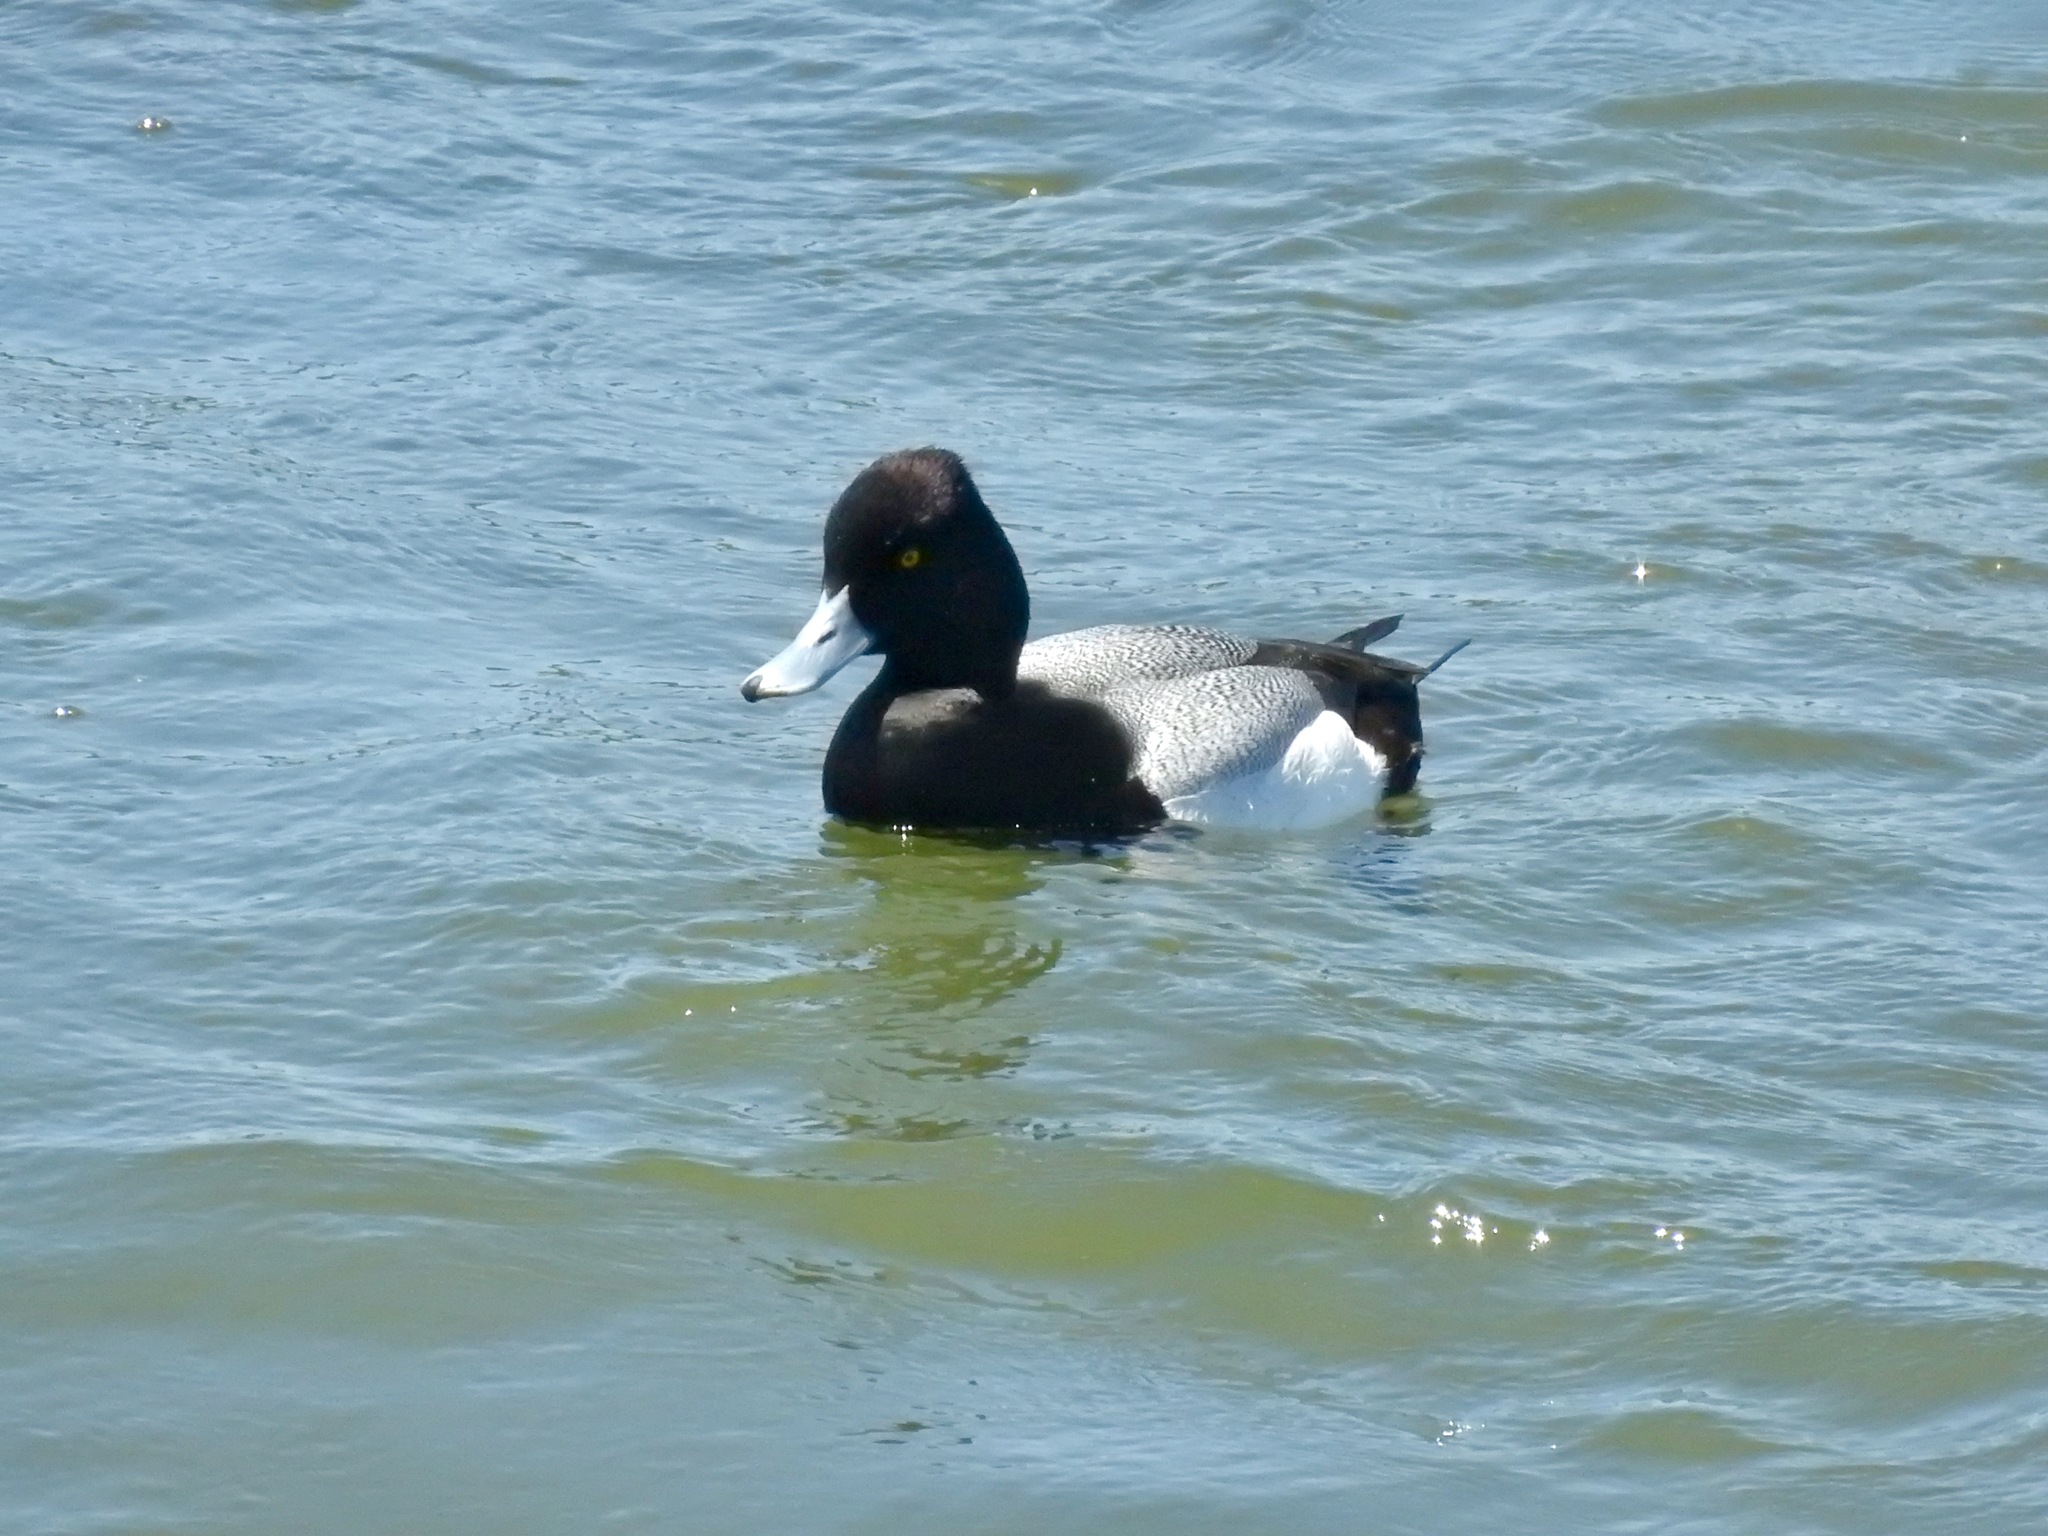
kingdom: Animalia
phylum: Chordata
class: Aves
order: Anseriformes
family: Anatidae
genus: Aythya
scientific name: Aythya affinis
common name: Lesser scaup
